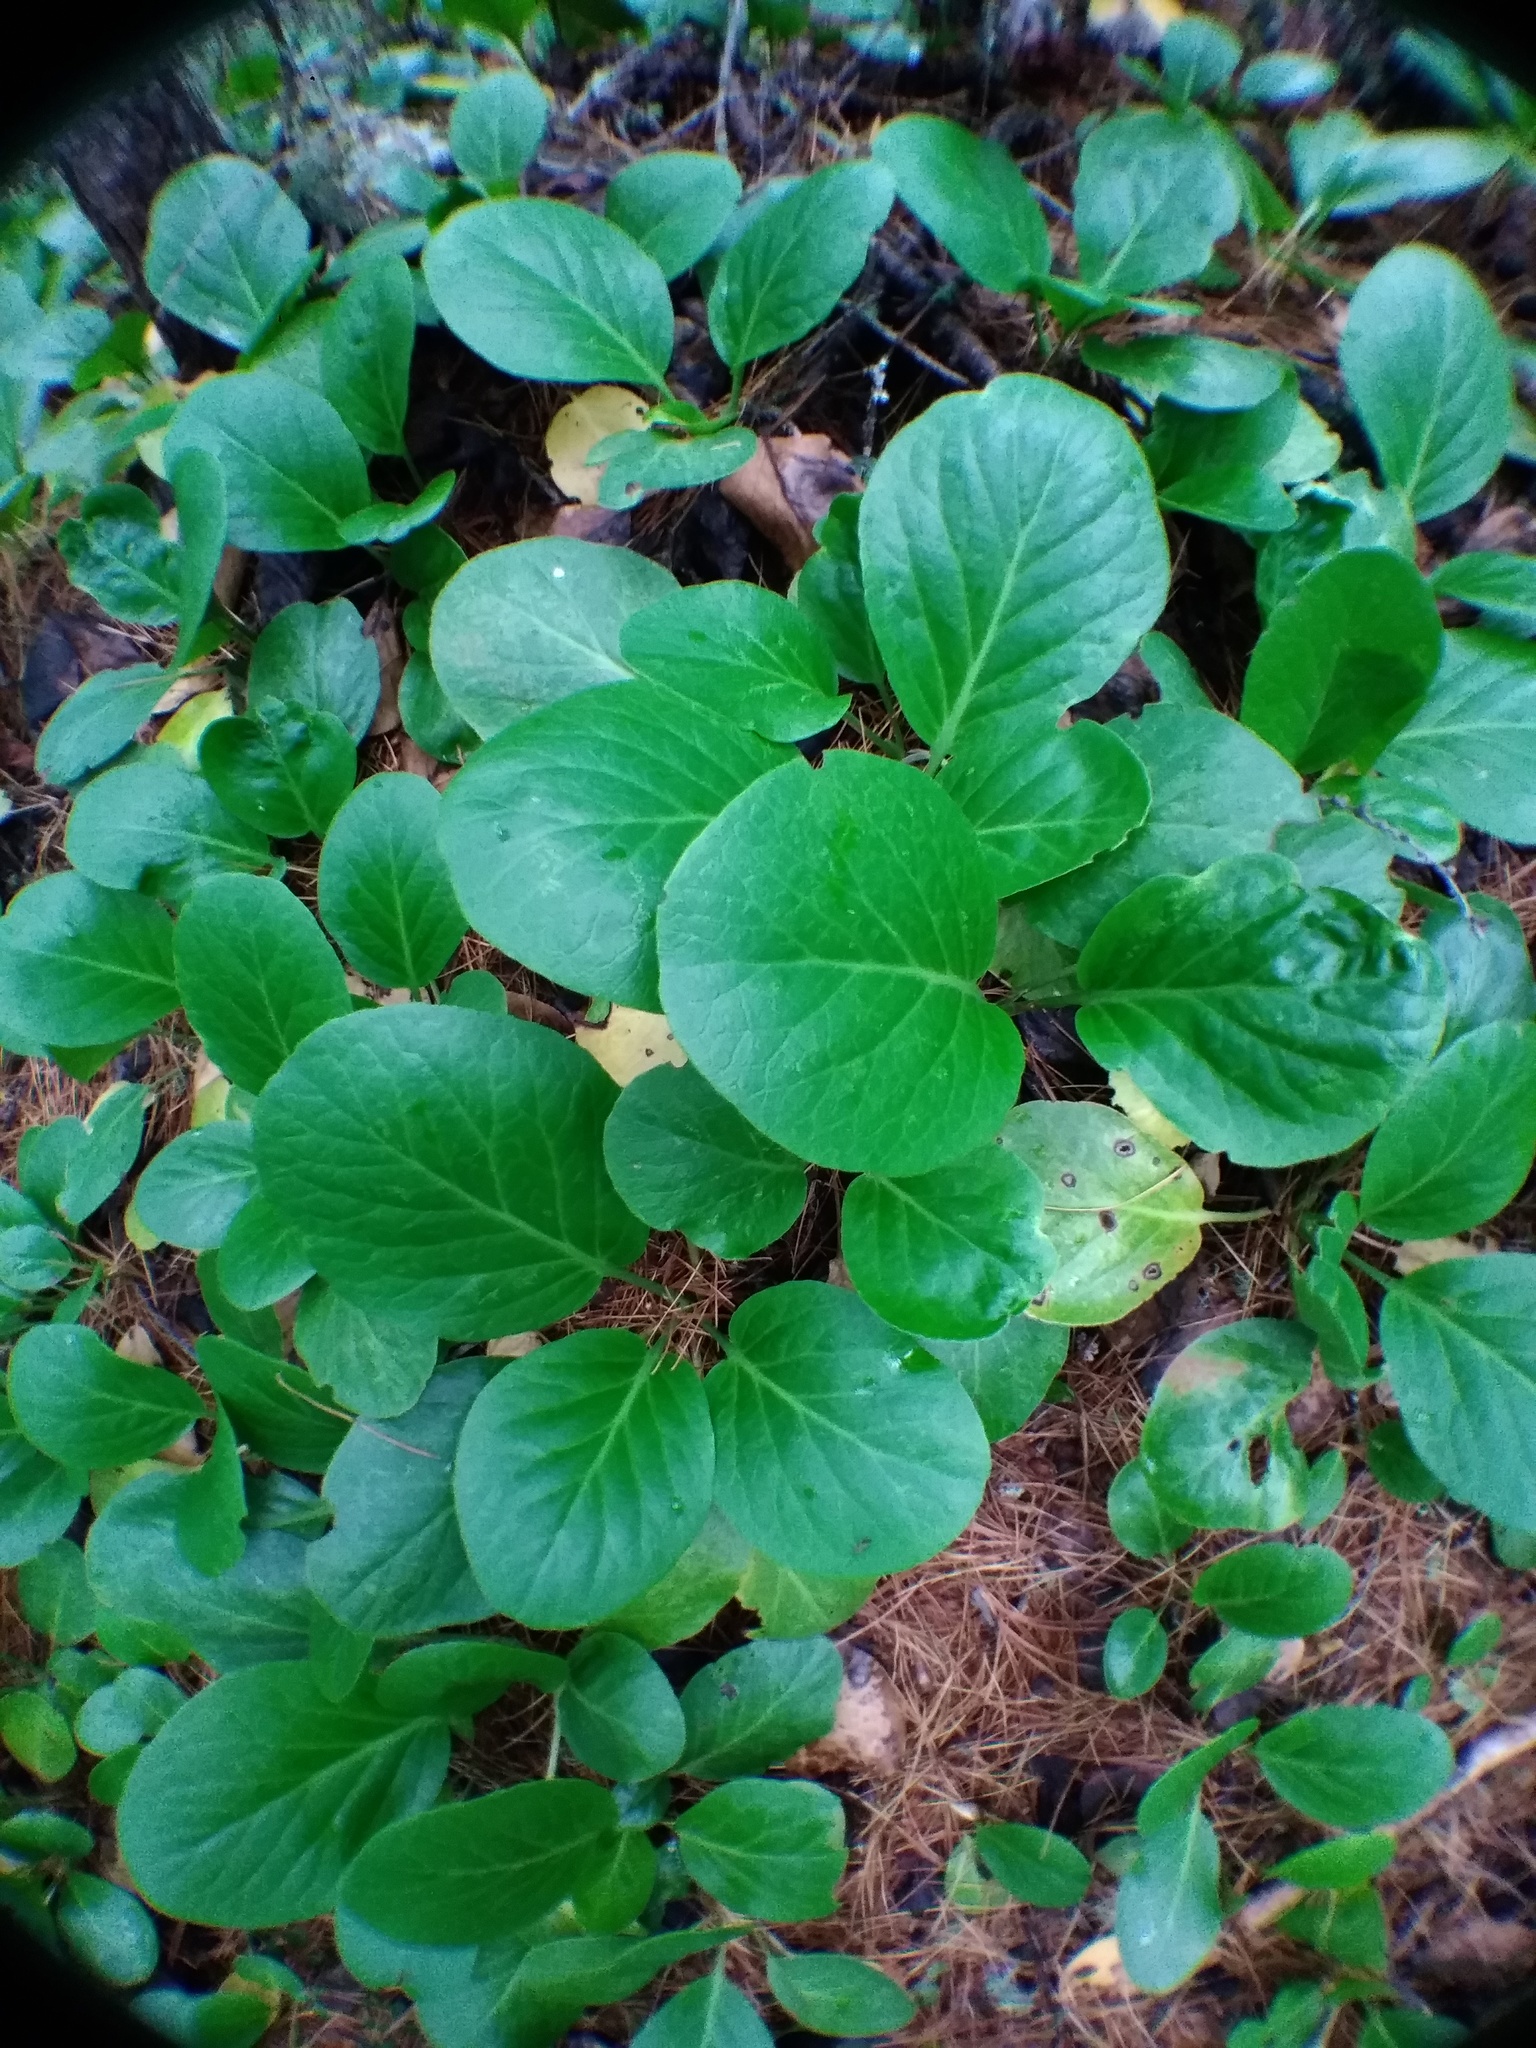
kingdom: Plantae
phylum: Tracheophyta
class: Magnoliopsida
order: Saxifragales
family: Saxifragaceae
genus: Bergenia
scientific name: Bergenia crassifolia
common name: Elephant-ears
